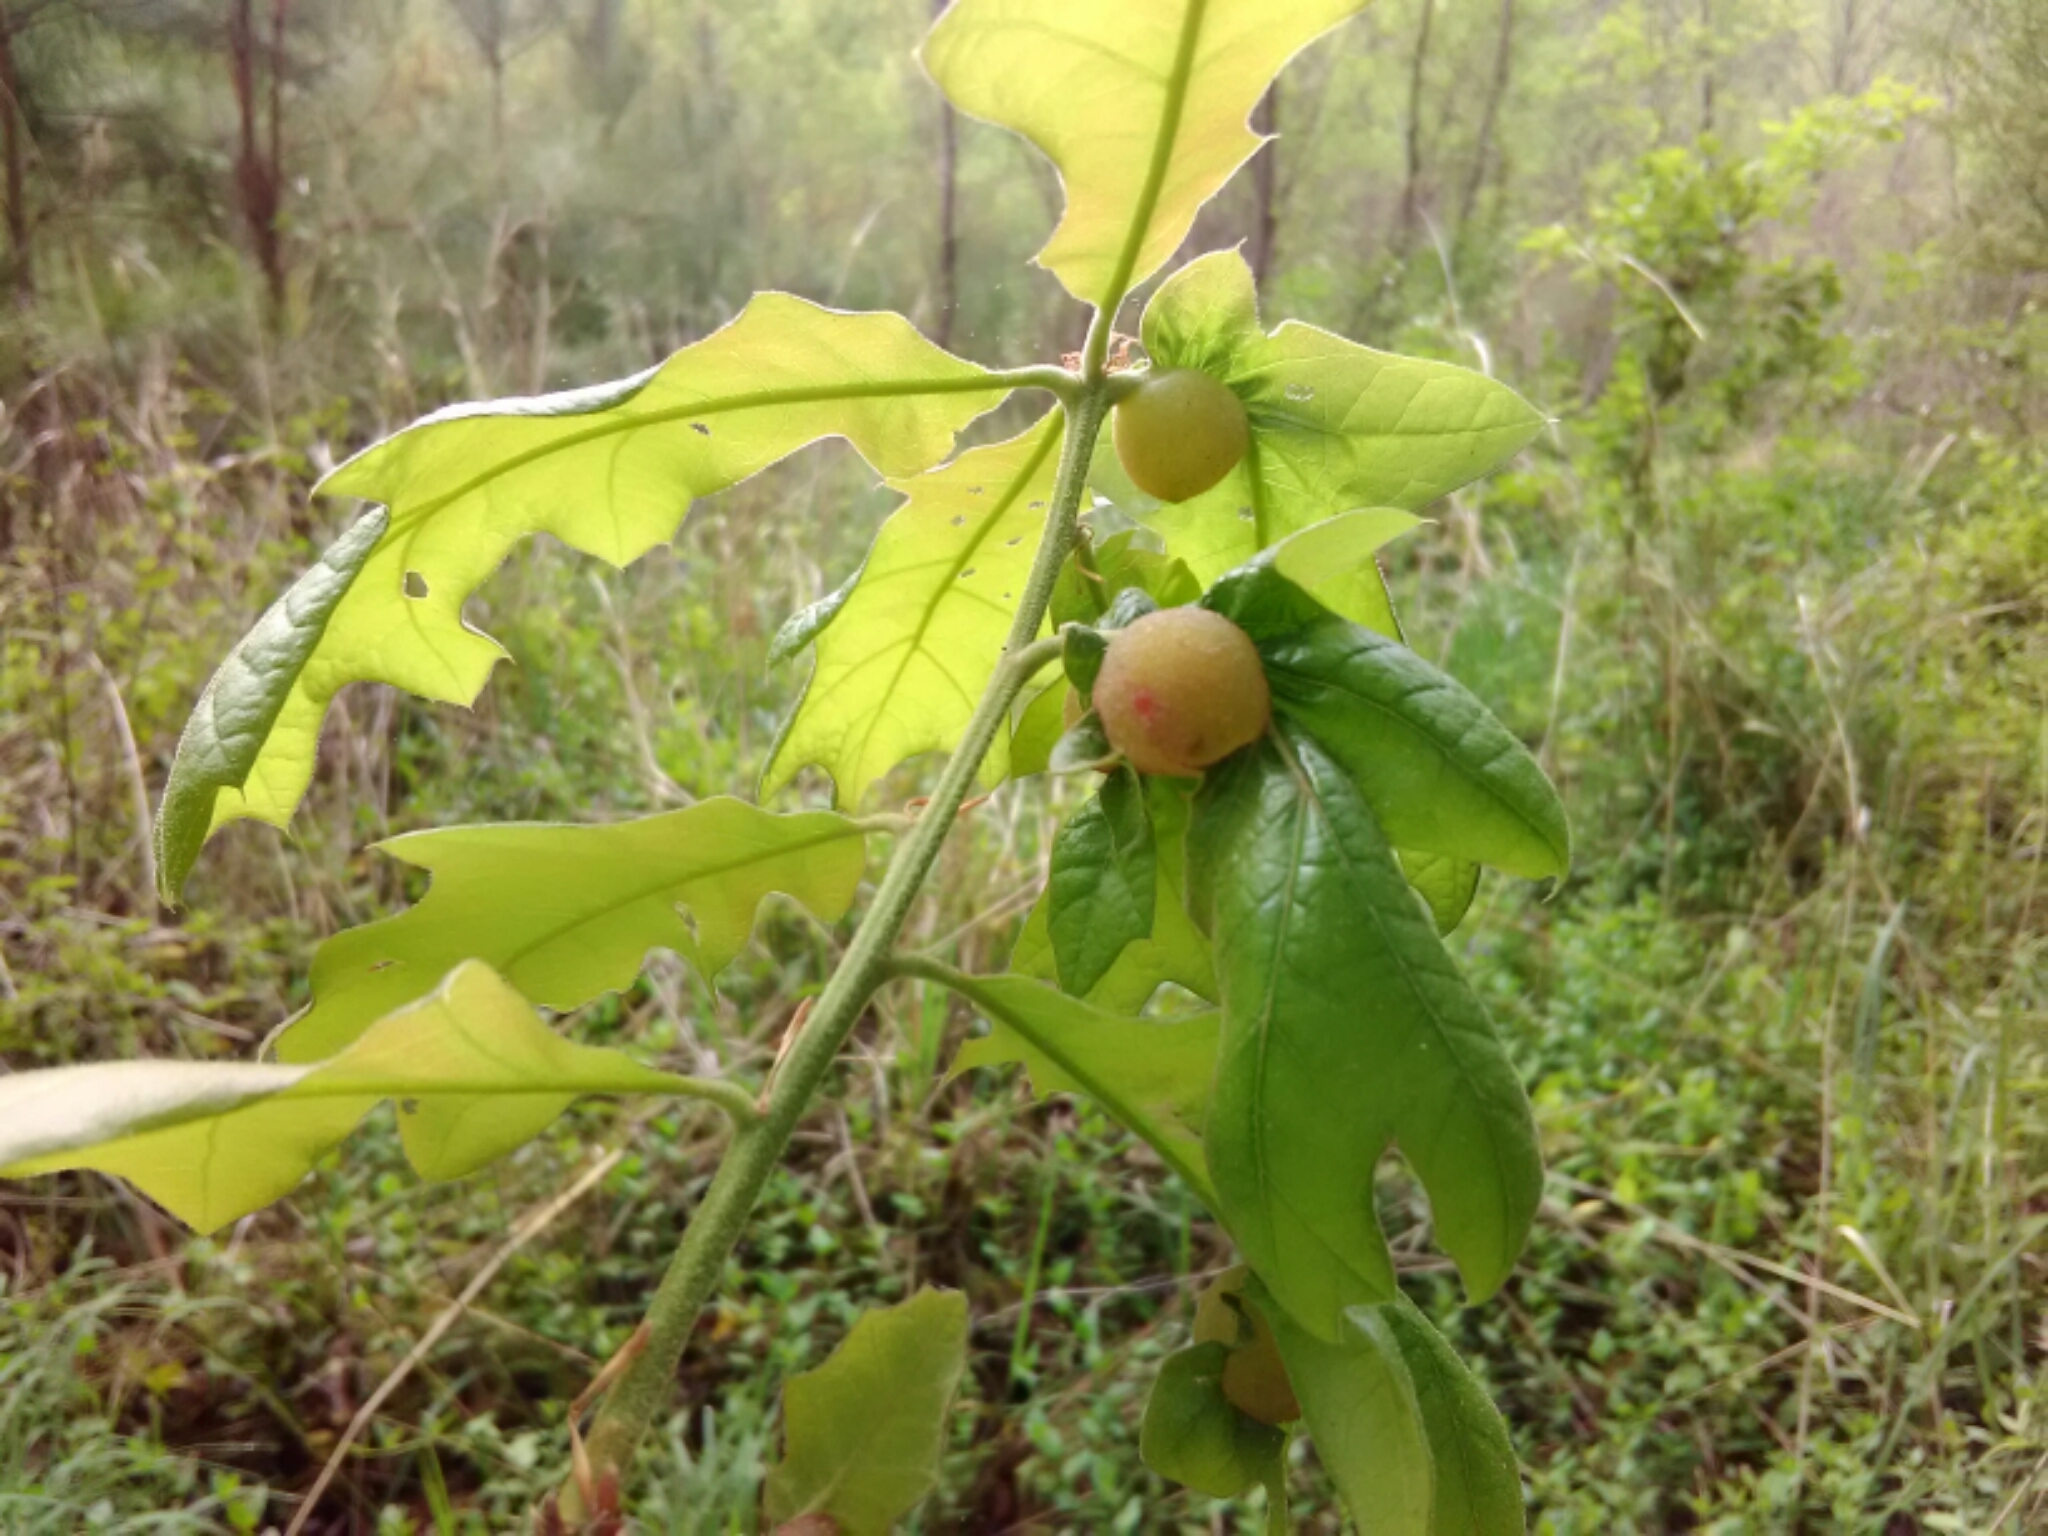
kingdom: Animalia
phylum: Arthropoda
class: Insecta
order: Hymenoptera
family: Cynipidae
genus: Dryocosmus
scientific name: Dryocosmus quercuspalustris
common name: Succulent oak gall wasp
